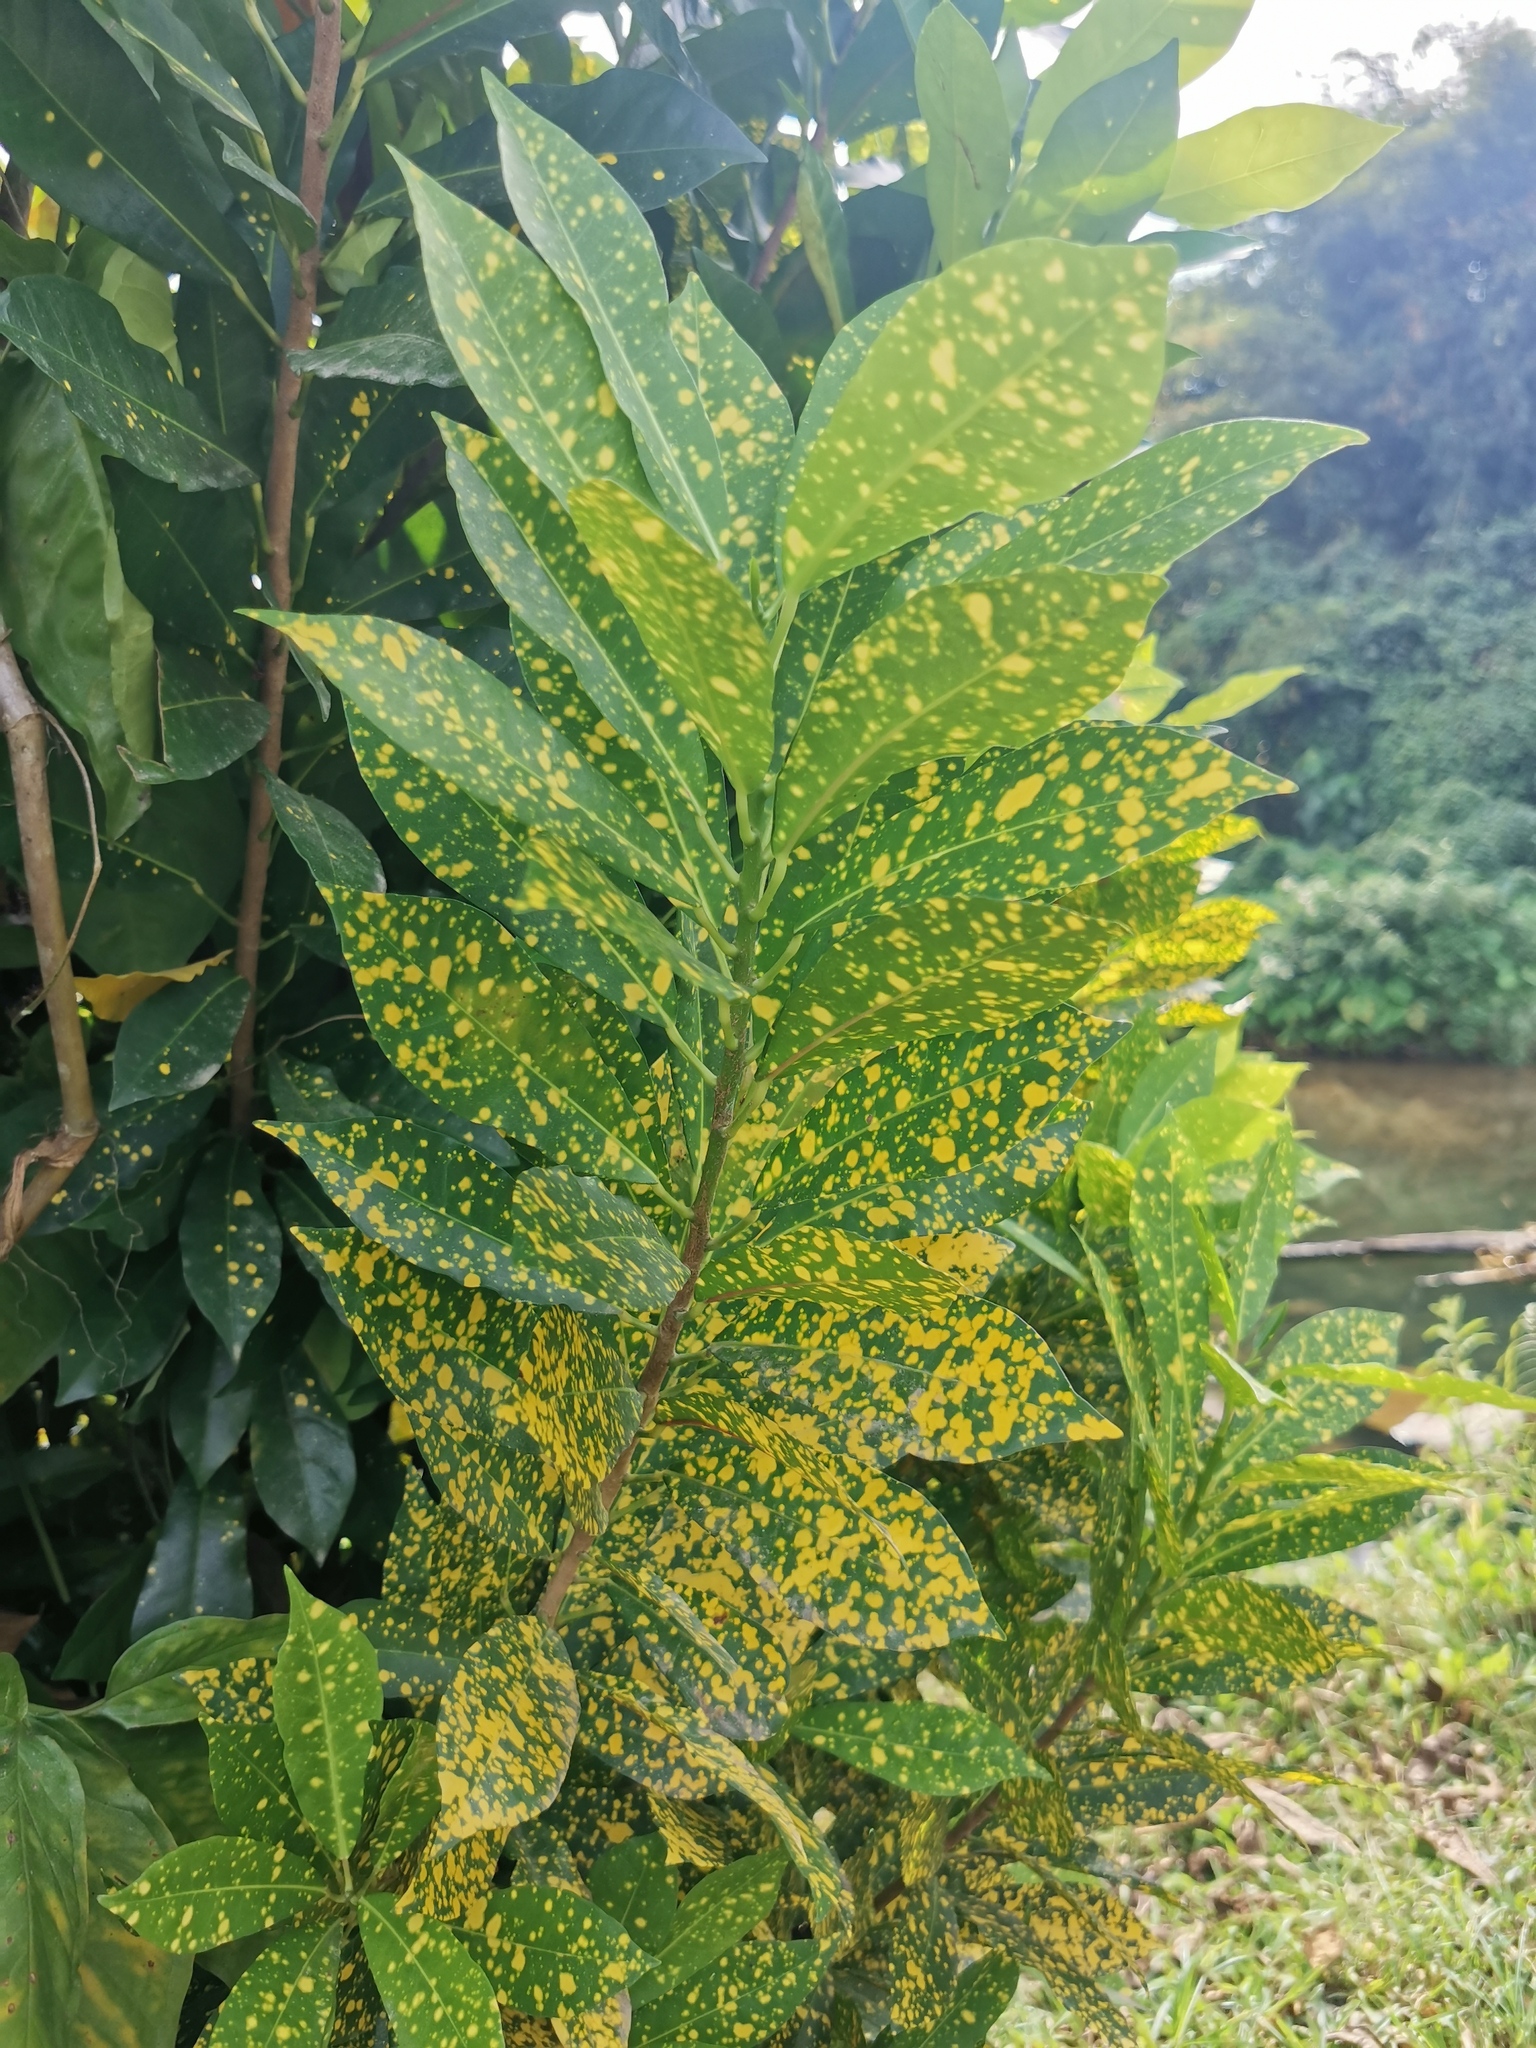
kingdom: Plantae
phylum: Tracheophyta
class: Magnoliopsida
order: Malpighiales
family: Euphorbiaceae
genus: Codiaeum
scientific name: Codiaeum variegatum
